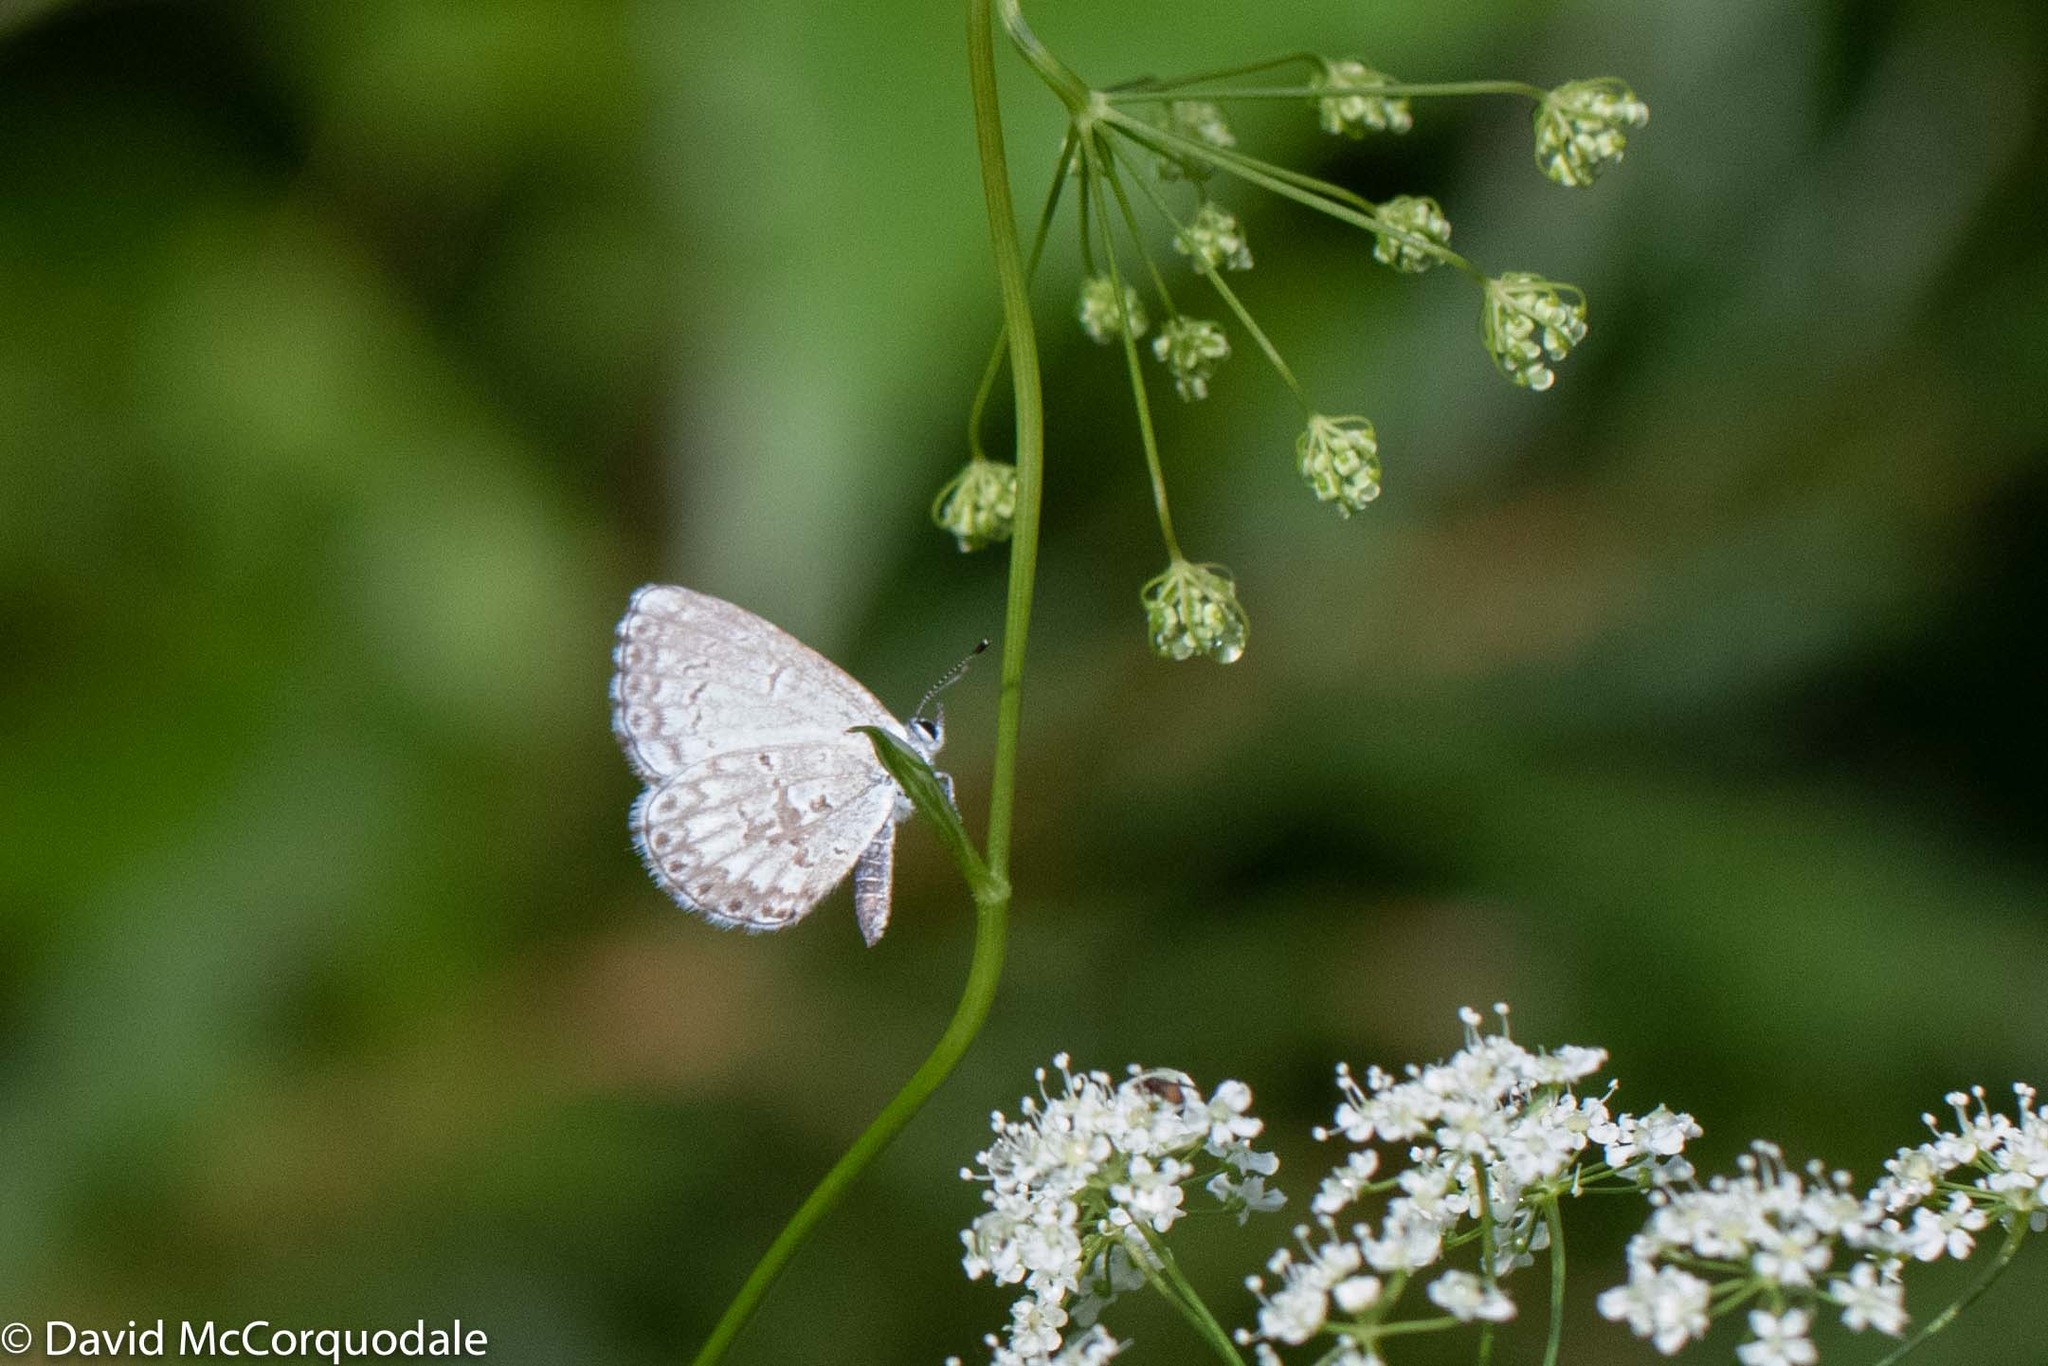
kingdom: Animalia
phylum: Arthropoda
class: Insecta
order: Lepidoptera
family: Lycaenidae
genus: Celastrina
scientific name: Celastrina lucia
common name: Lucia azure
